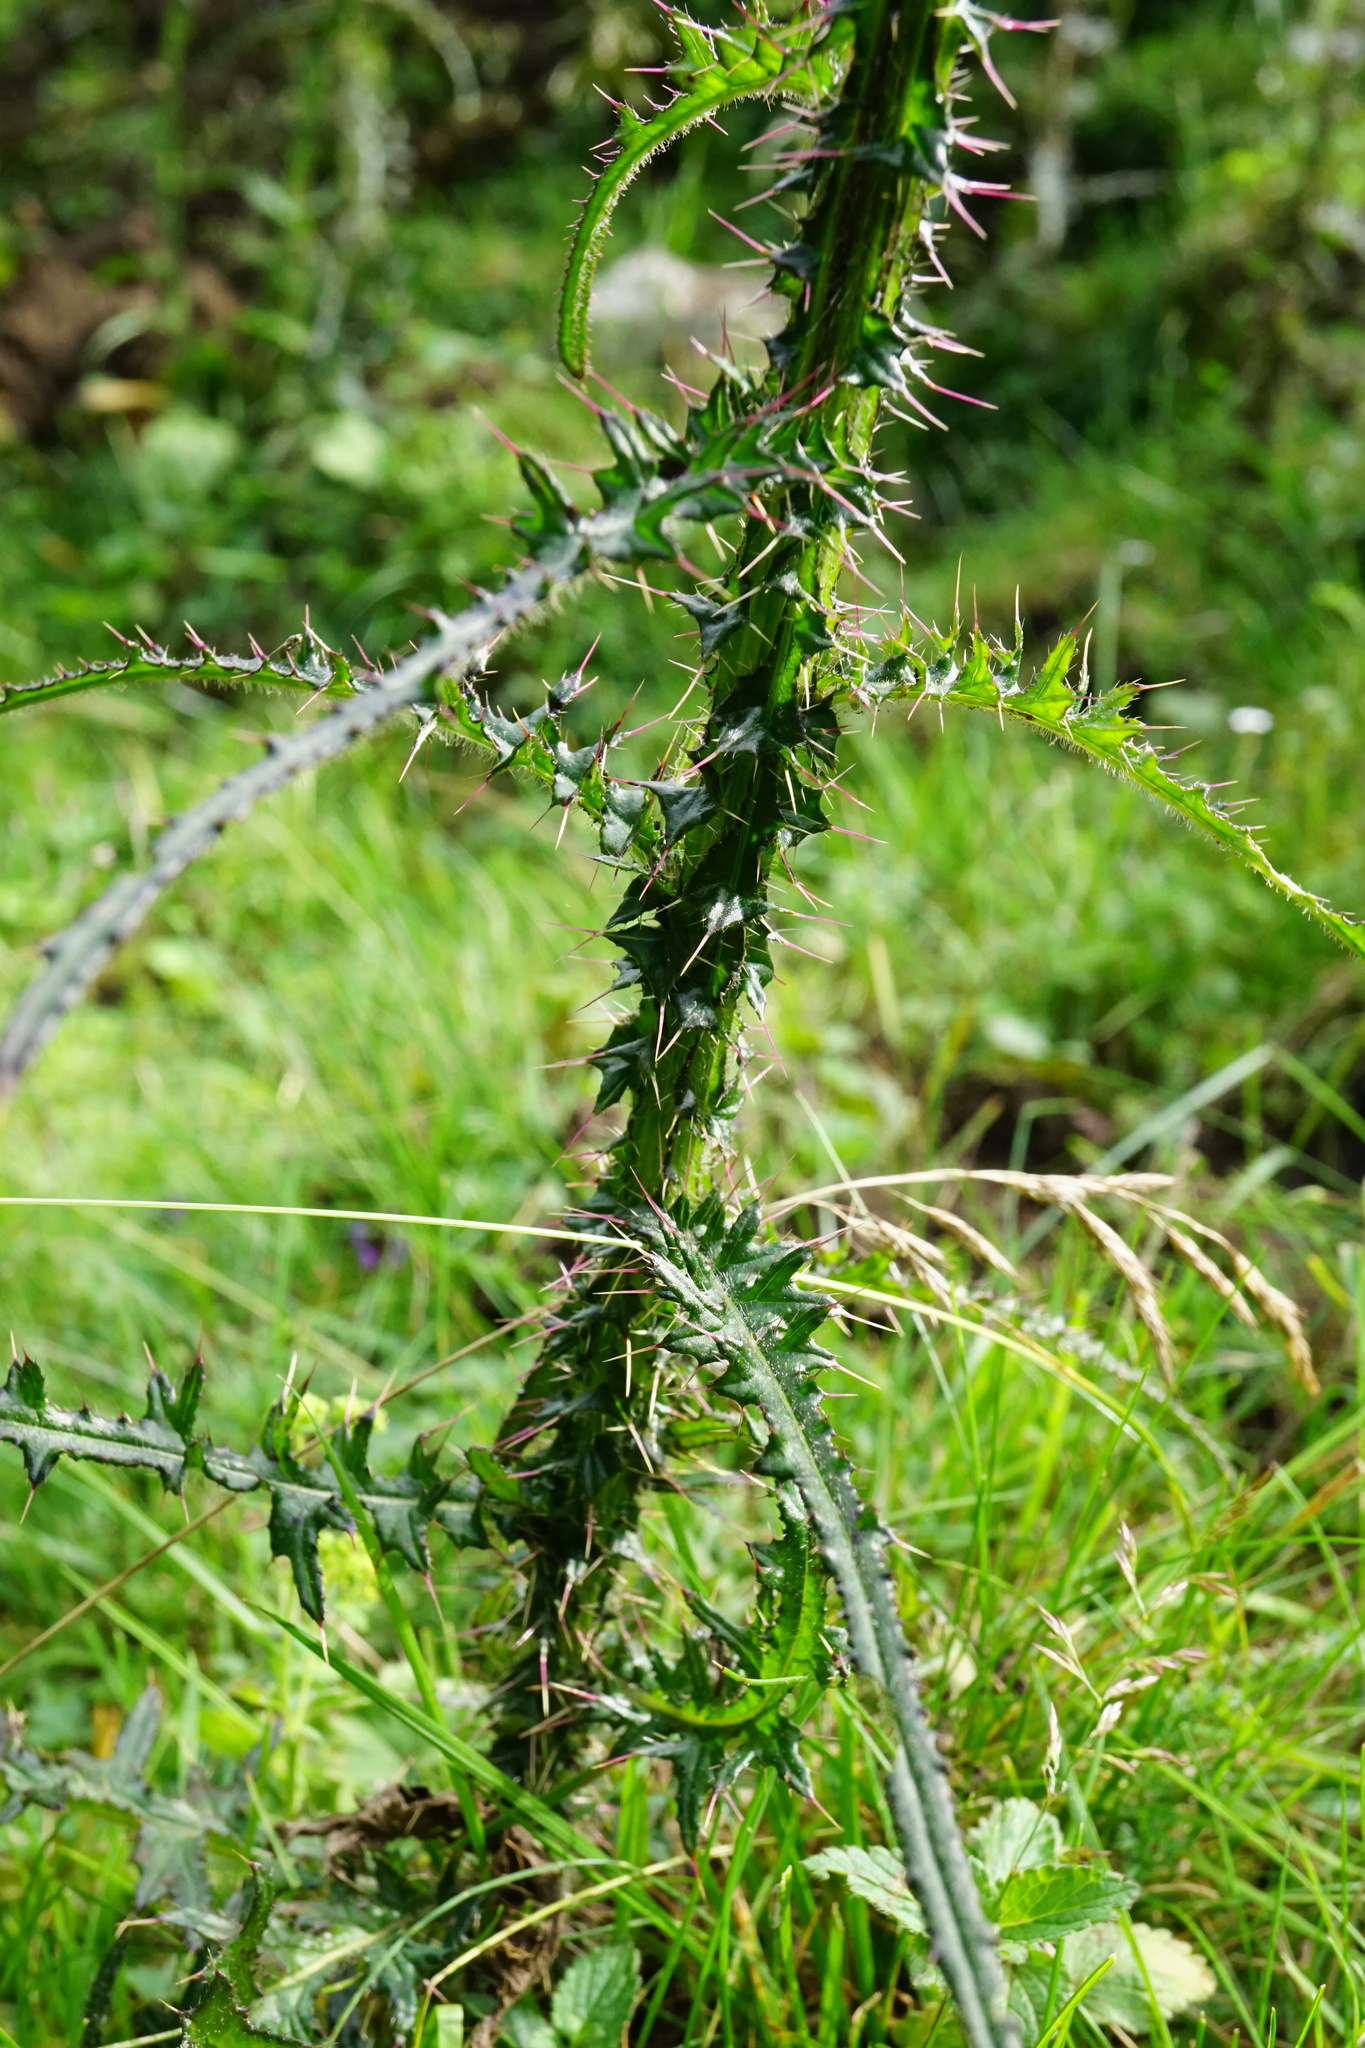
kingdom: Plantae
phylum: Tracheophyta
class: Magnoliopsida
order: Asterales
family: Asteraceae
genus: Cirsium
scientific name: Cirsium palustre
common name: Marsh thistle
